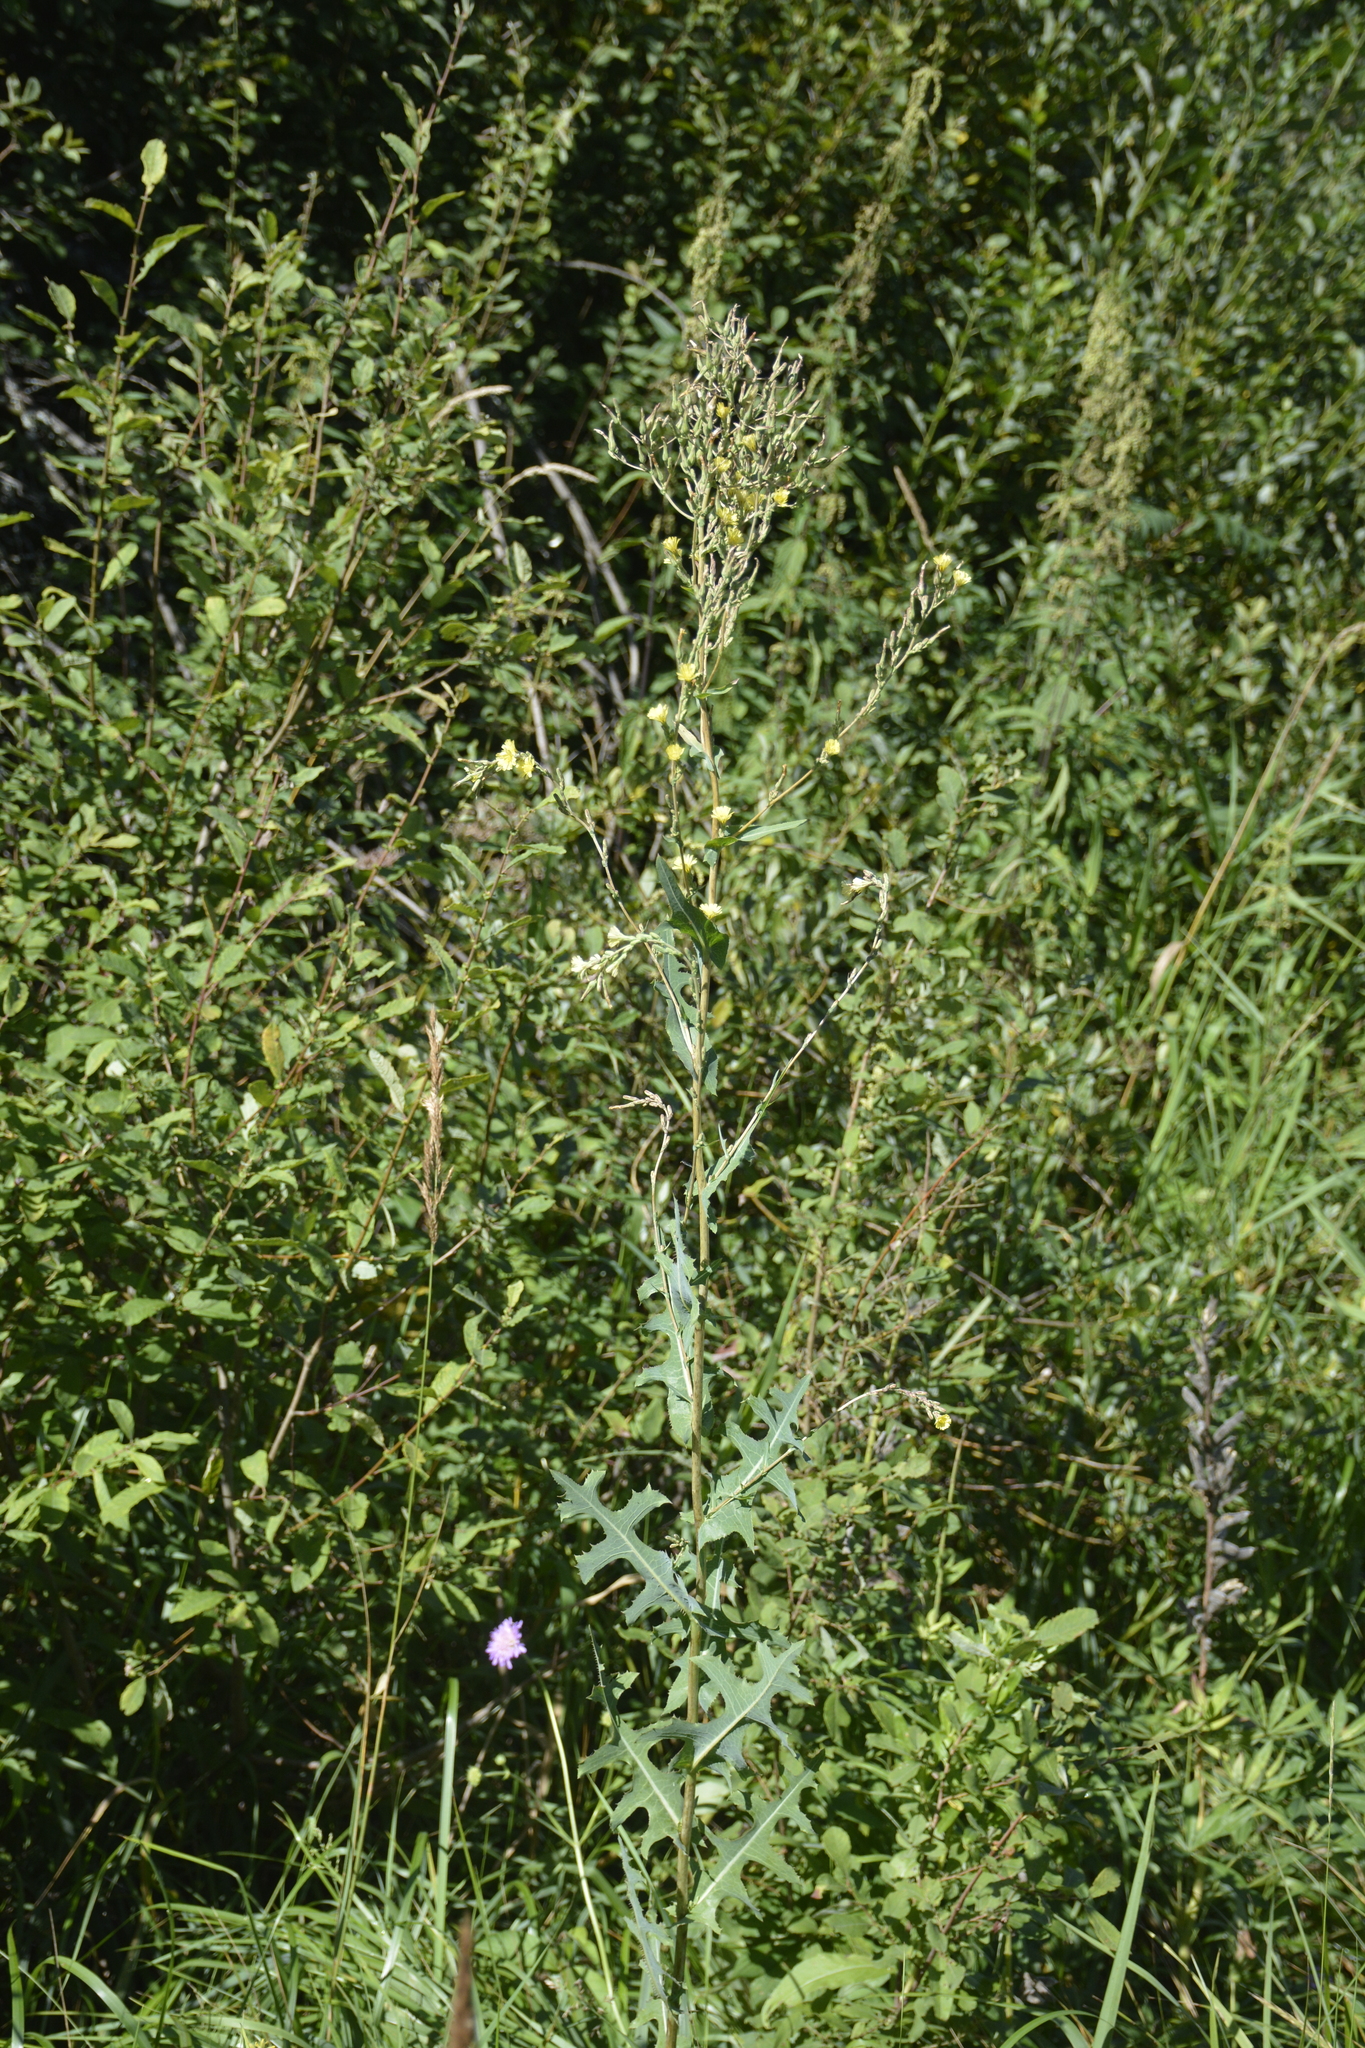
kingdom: Plantae
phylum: Tracheophyta
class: Magnoliopsida
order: Asterales
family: Asteraceae
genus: Lactuca
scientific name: Lactuca serriola
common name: Prickly lettuce
